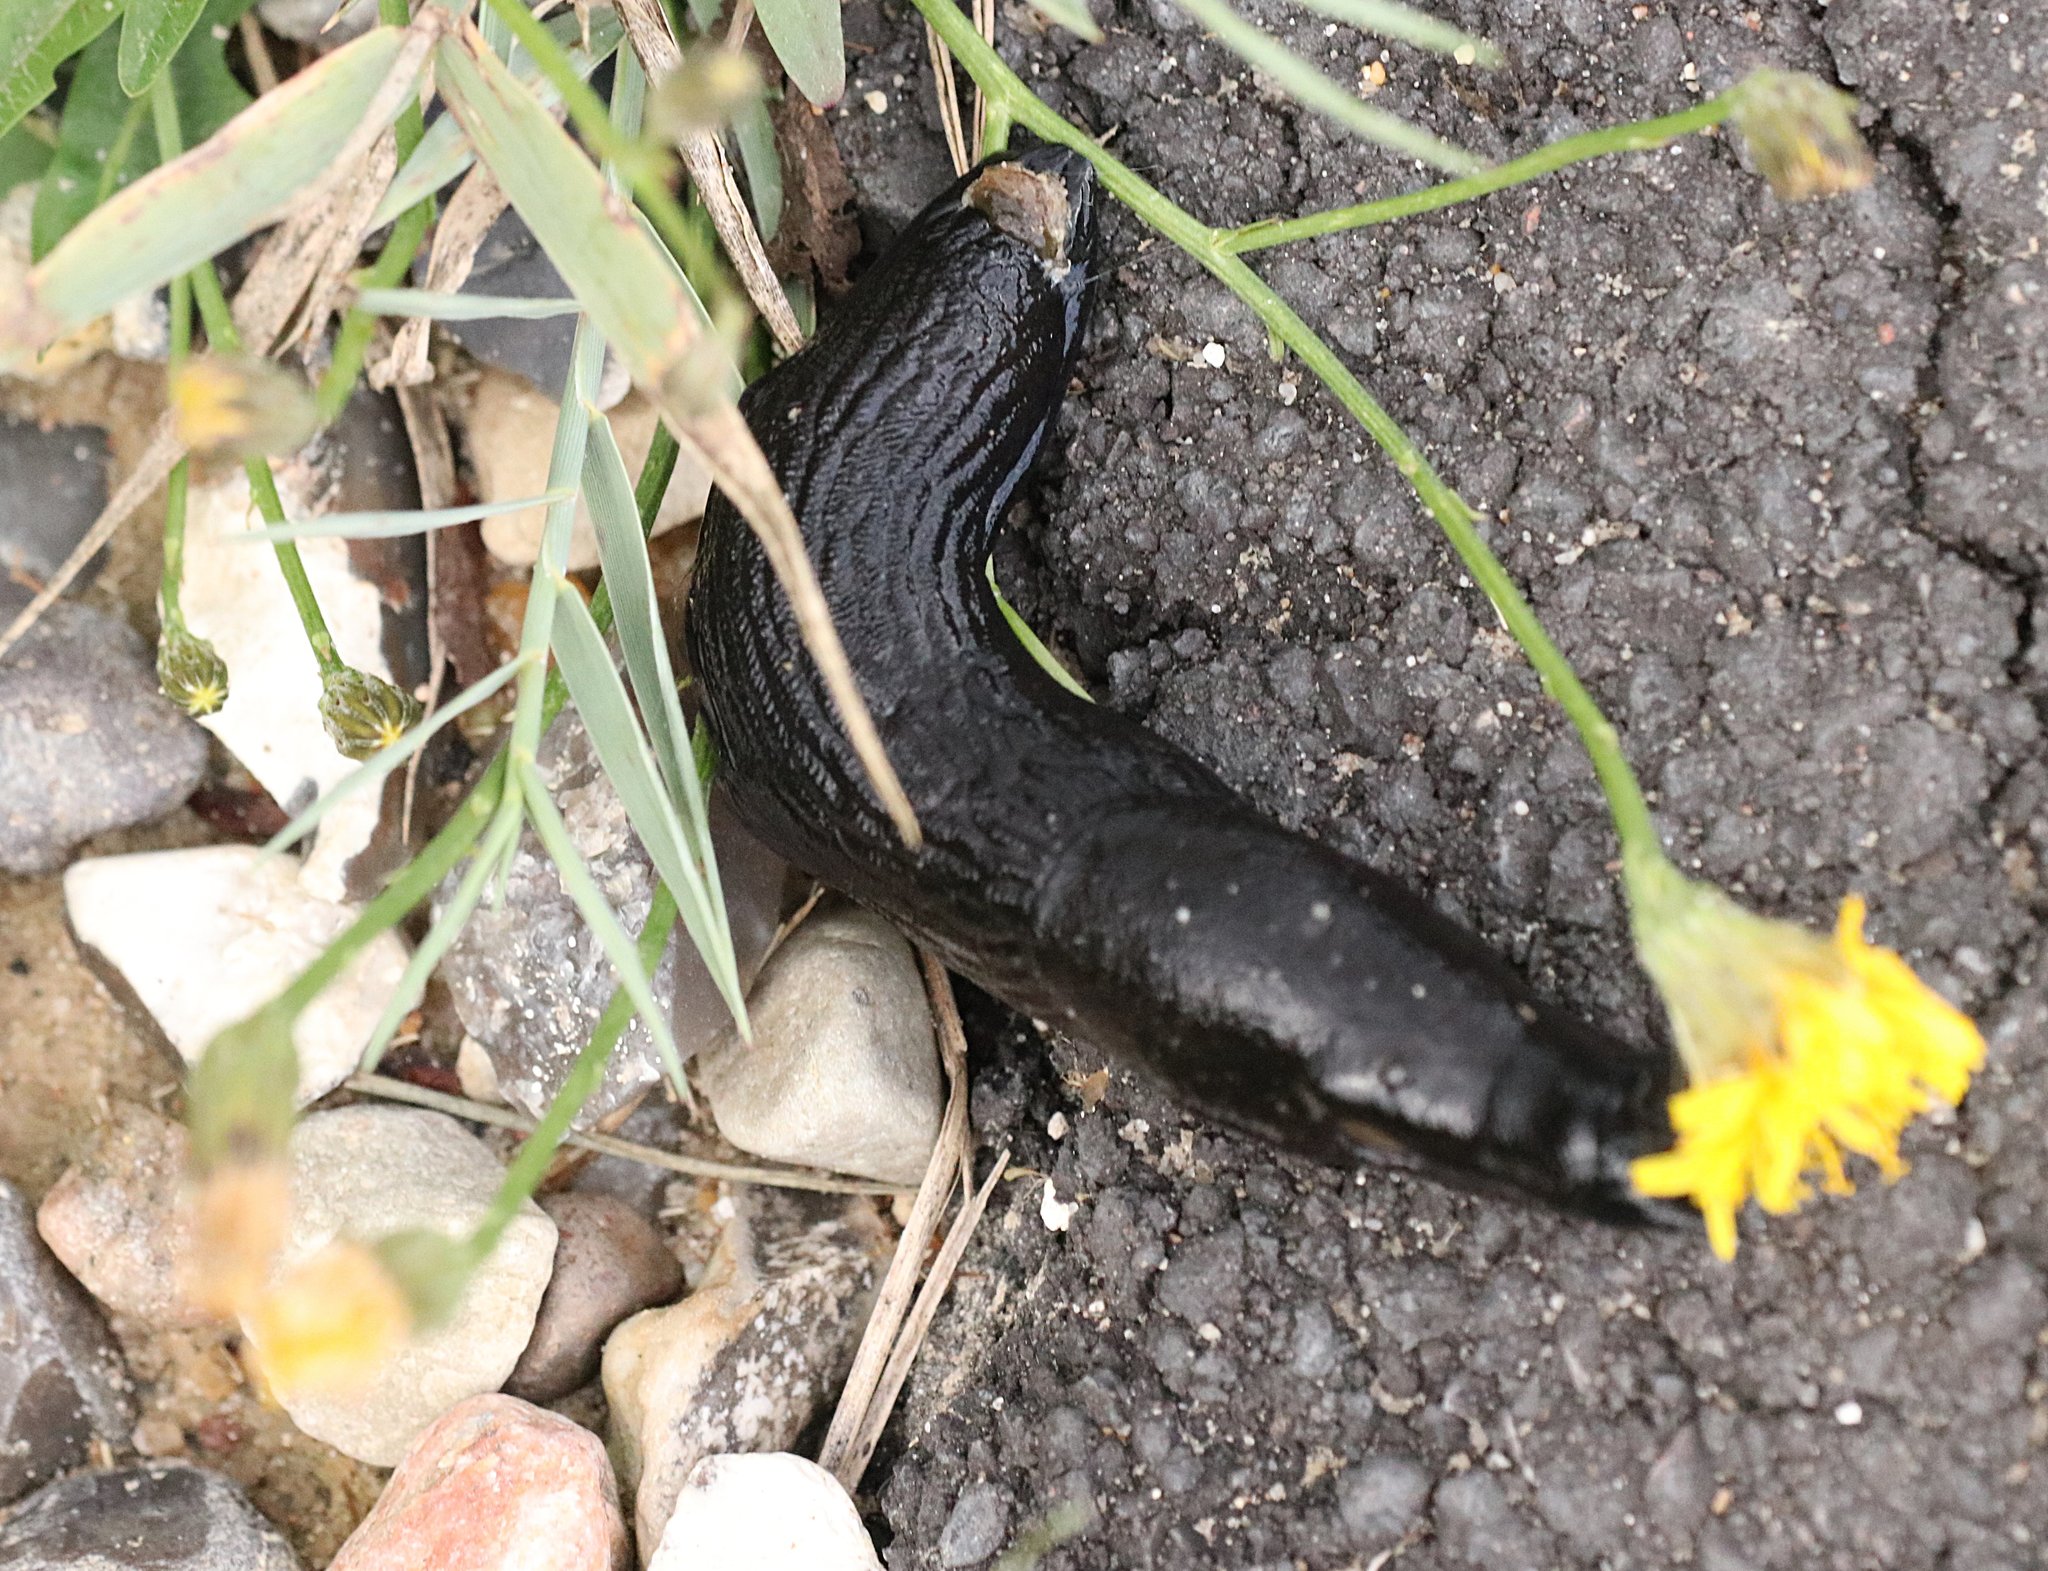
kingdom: Animalia
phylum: Mollusca
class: Gastropoda
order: Stylommatophora
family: Arionidae
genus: Arion
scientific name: Arion ater
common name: Black arion
